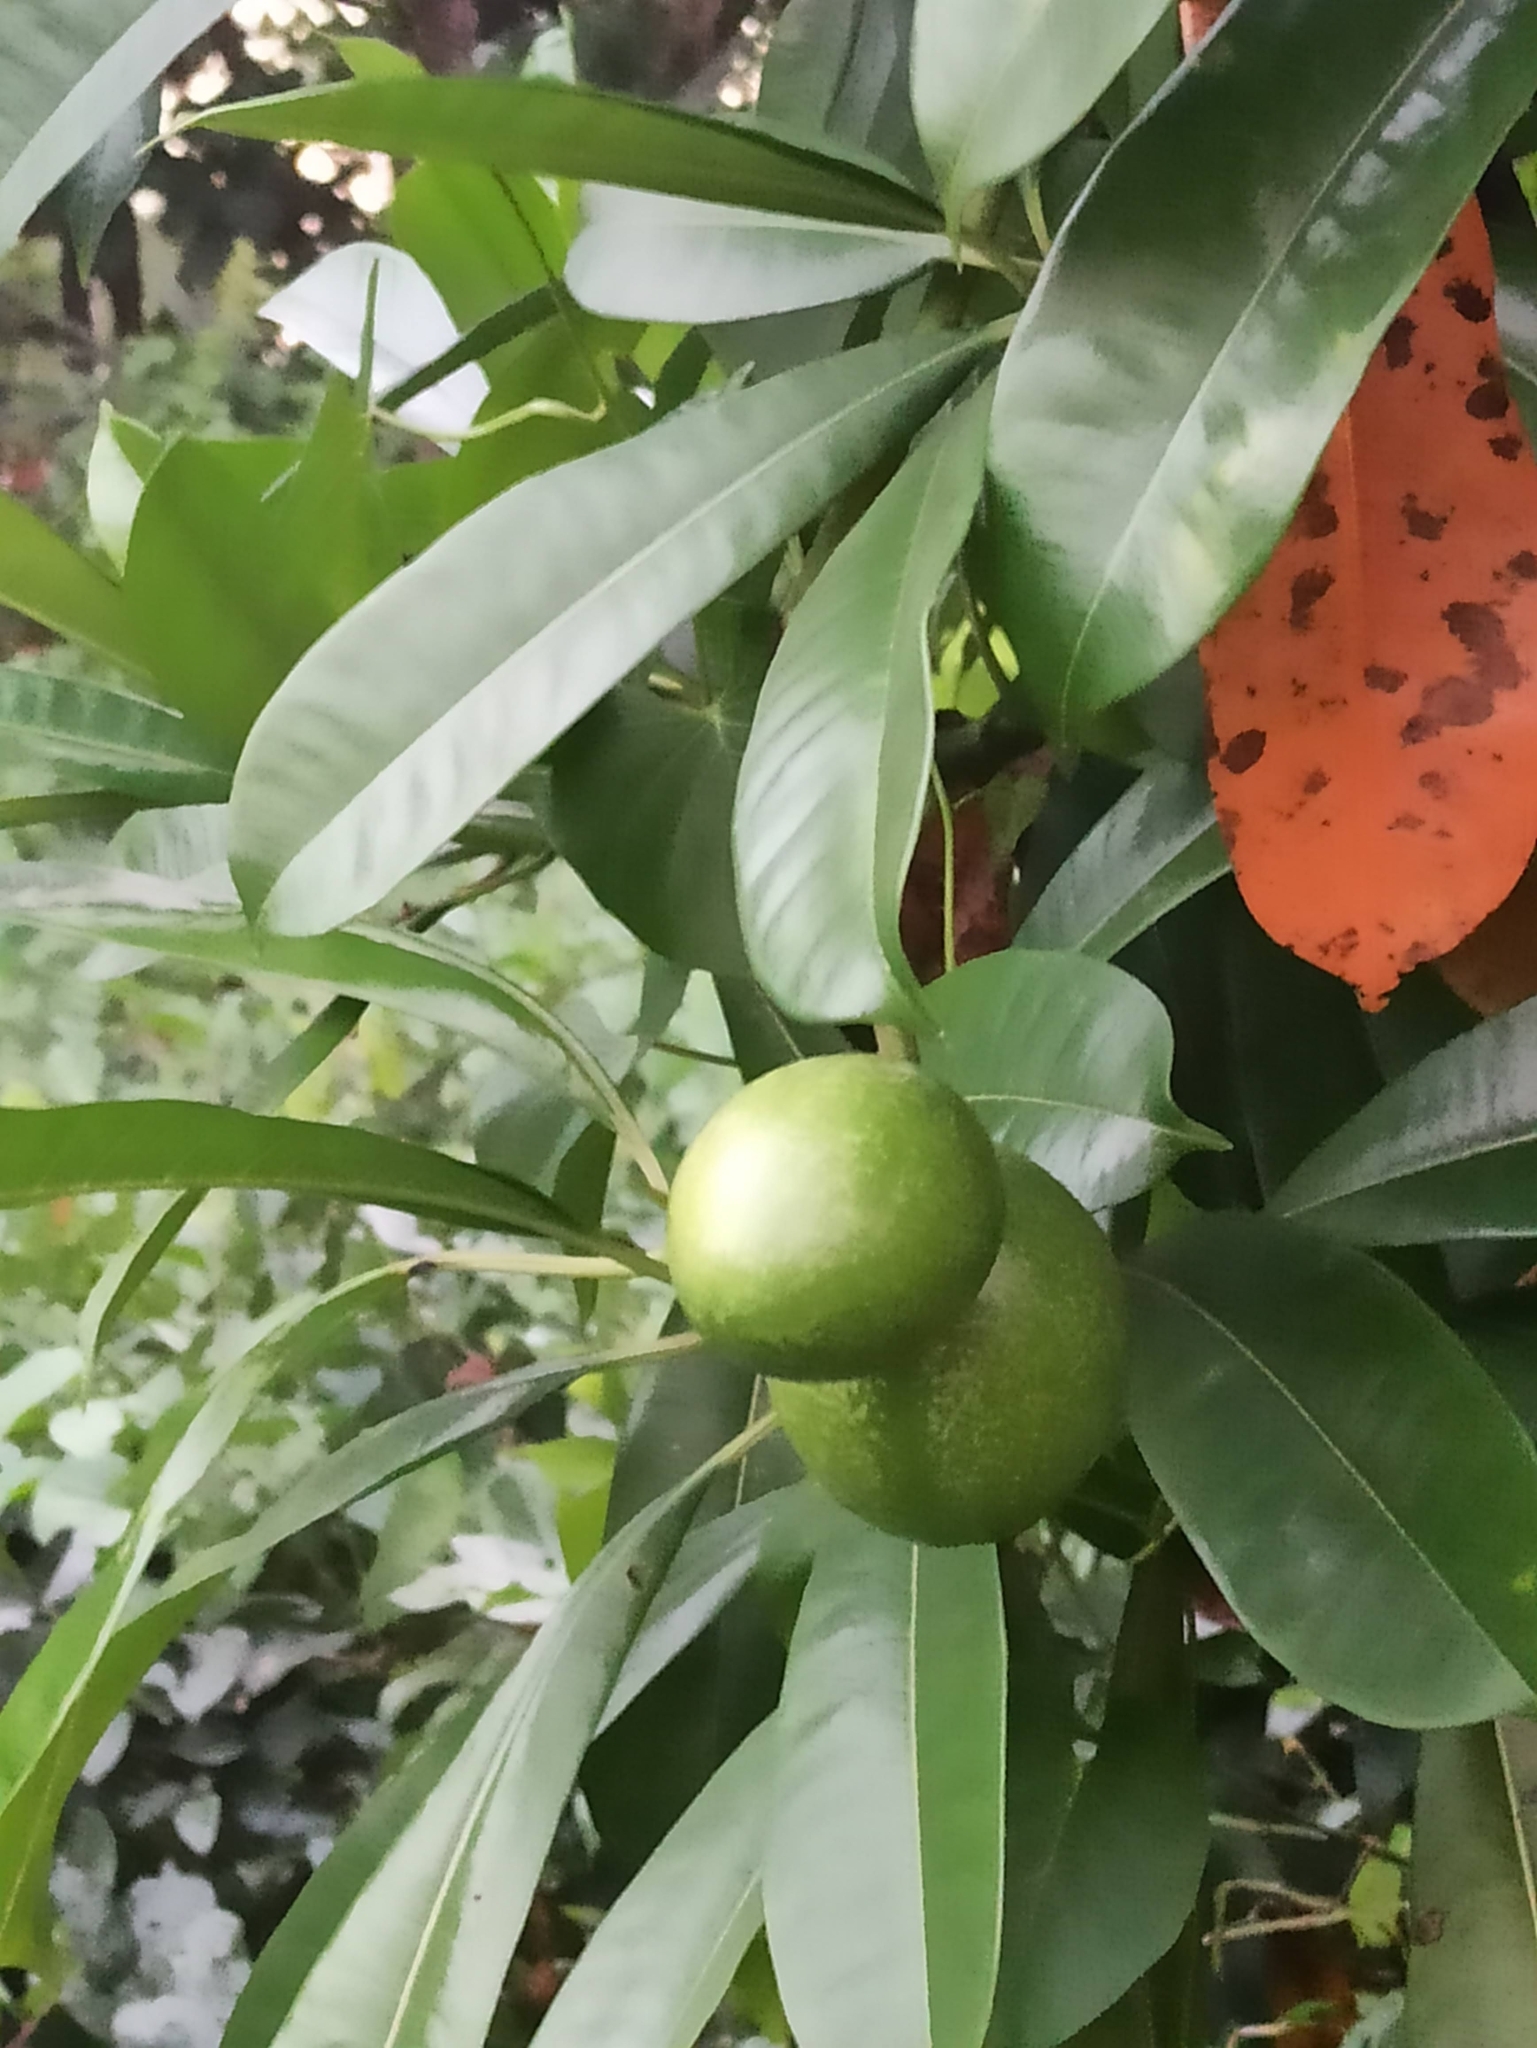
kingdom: Plantae
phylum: Tracheophyta
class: Magnoliopsida
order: Gentianales
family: Apocynaceae
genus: Cerbera
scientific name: Cerbera odollam
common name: Pong-pong
